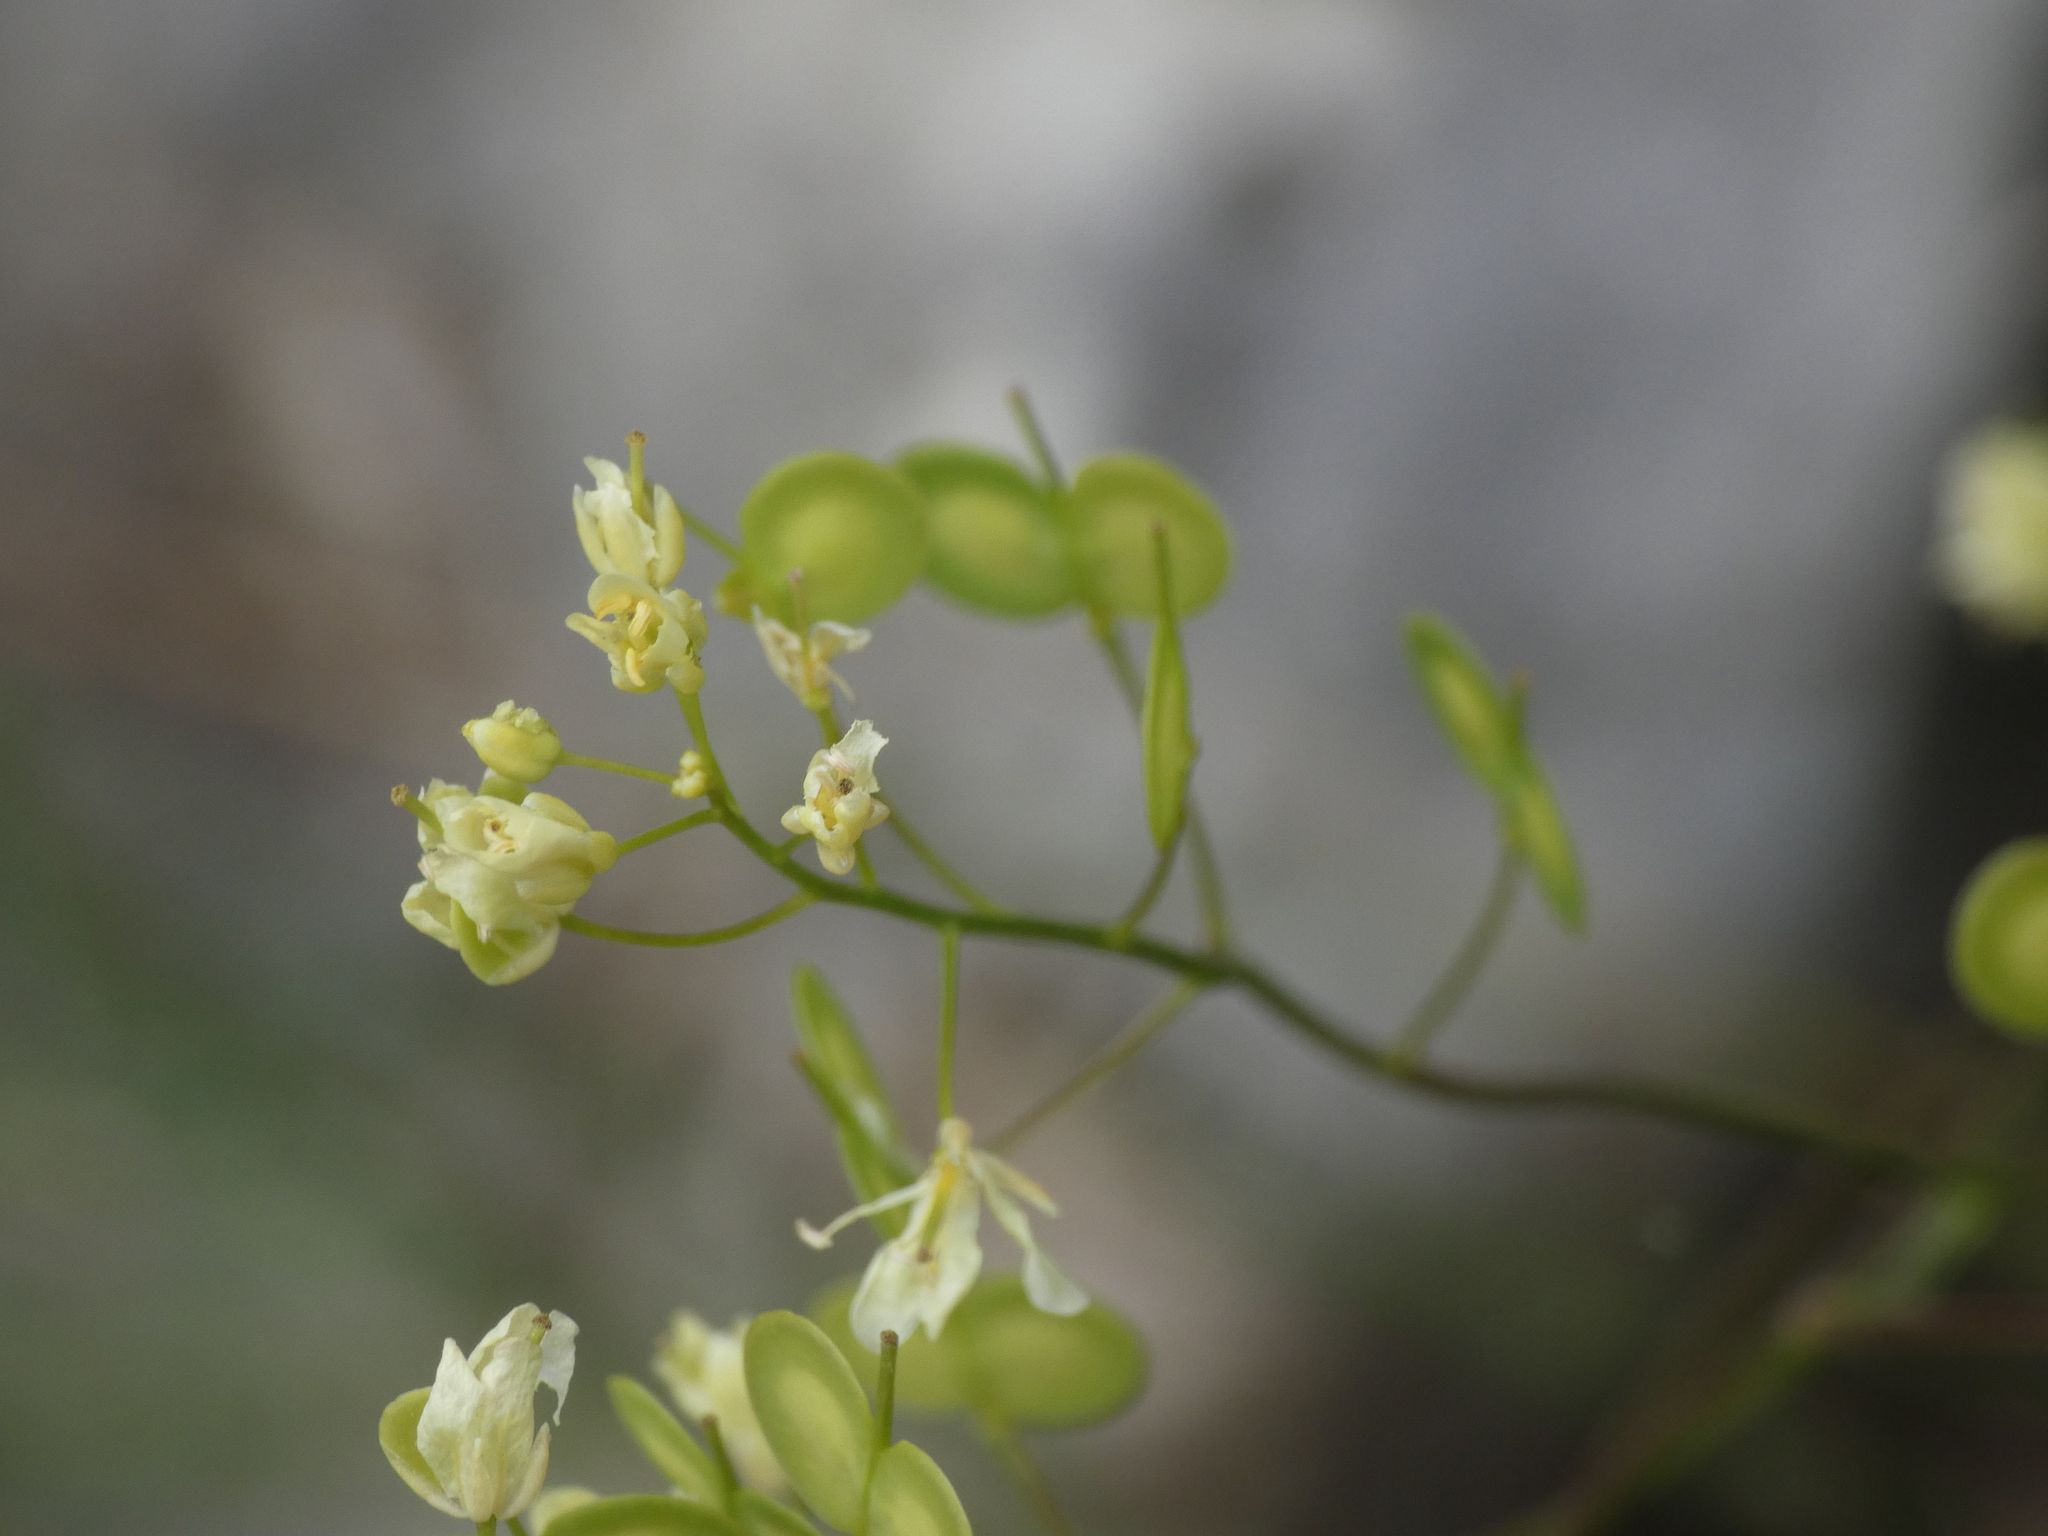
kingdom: Plantae
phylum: Tracheophyta
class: Magnoliopsida
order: Brassicales
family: Brassicaceae
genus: Biscutella
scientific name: Biscutella laevigata
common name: Buckler mustard
